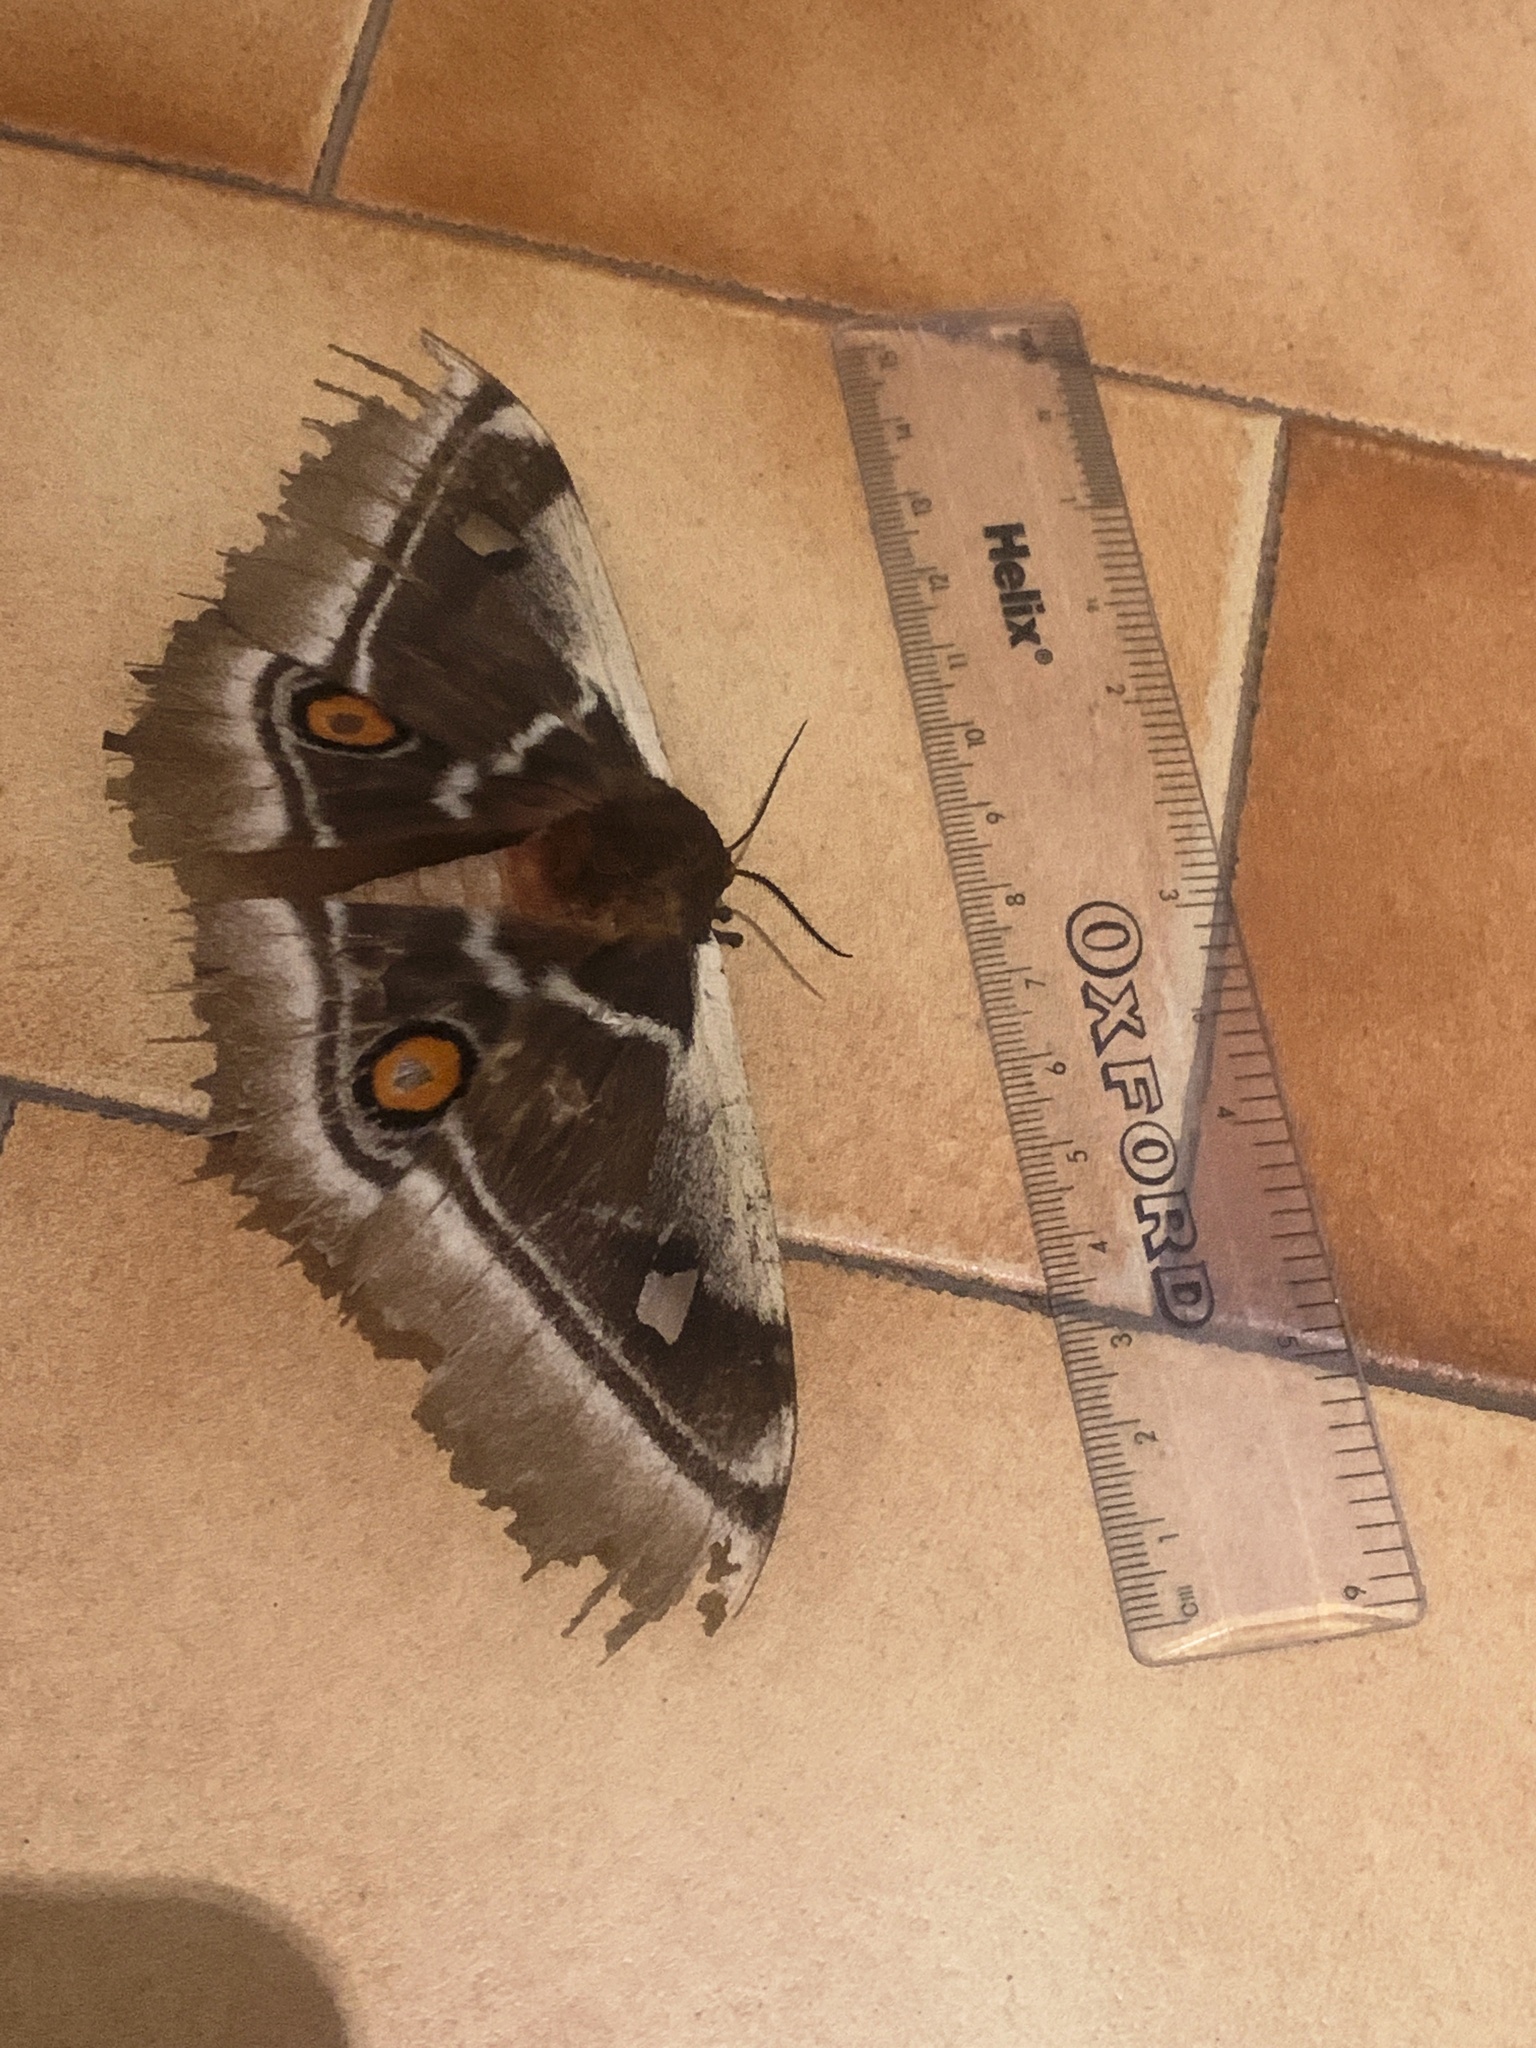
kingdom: Animalia
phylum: Arthropoda
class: Insecta
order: Lepidoptera
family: Saturniidae
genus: Bunaea
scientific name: Bunaea alcinoe
